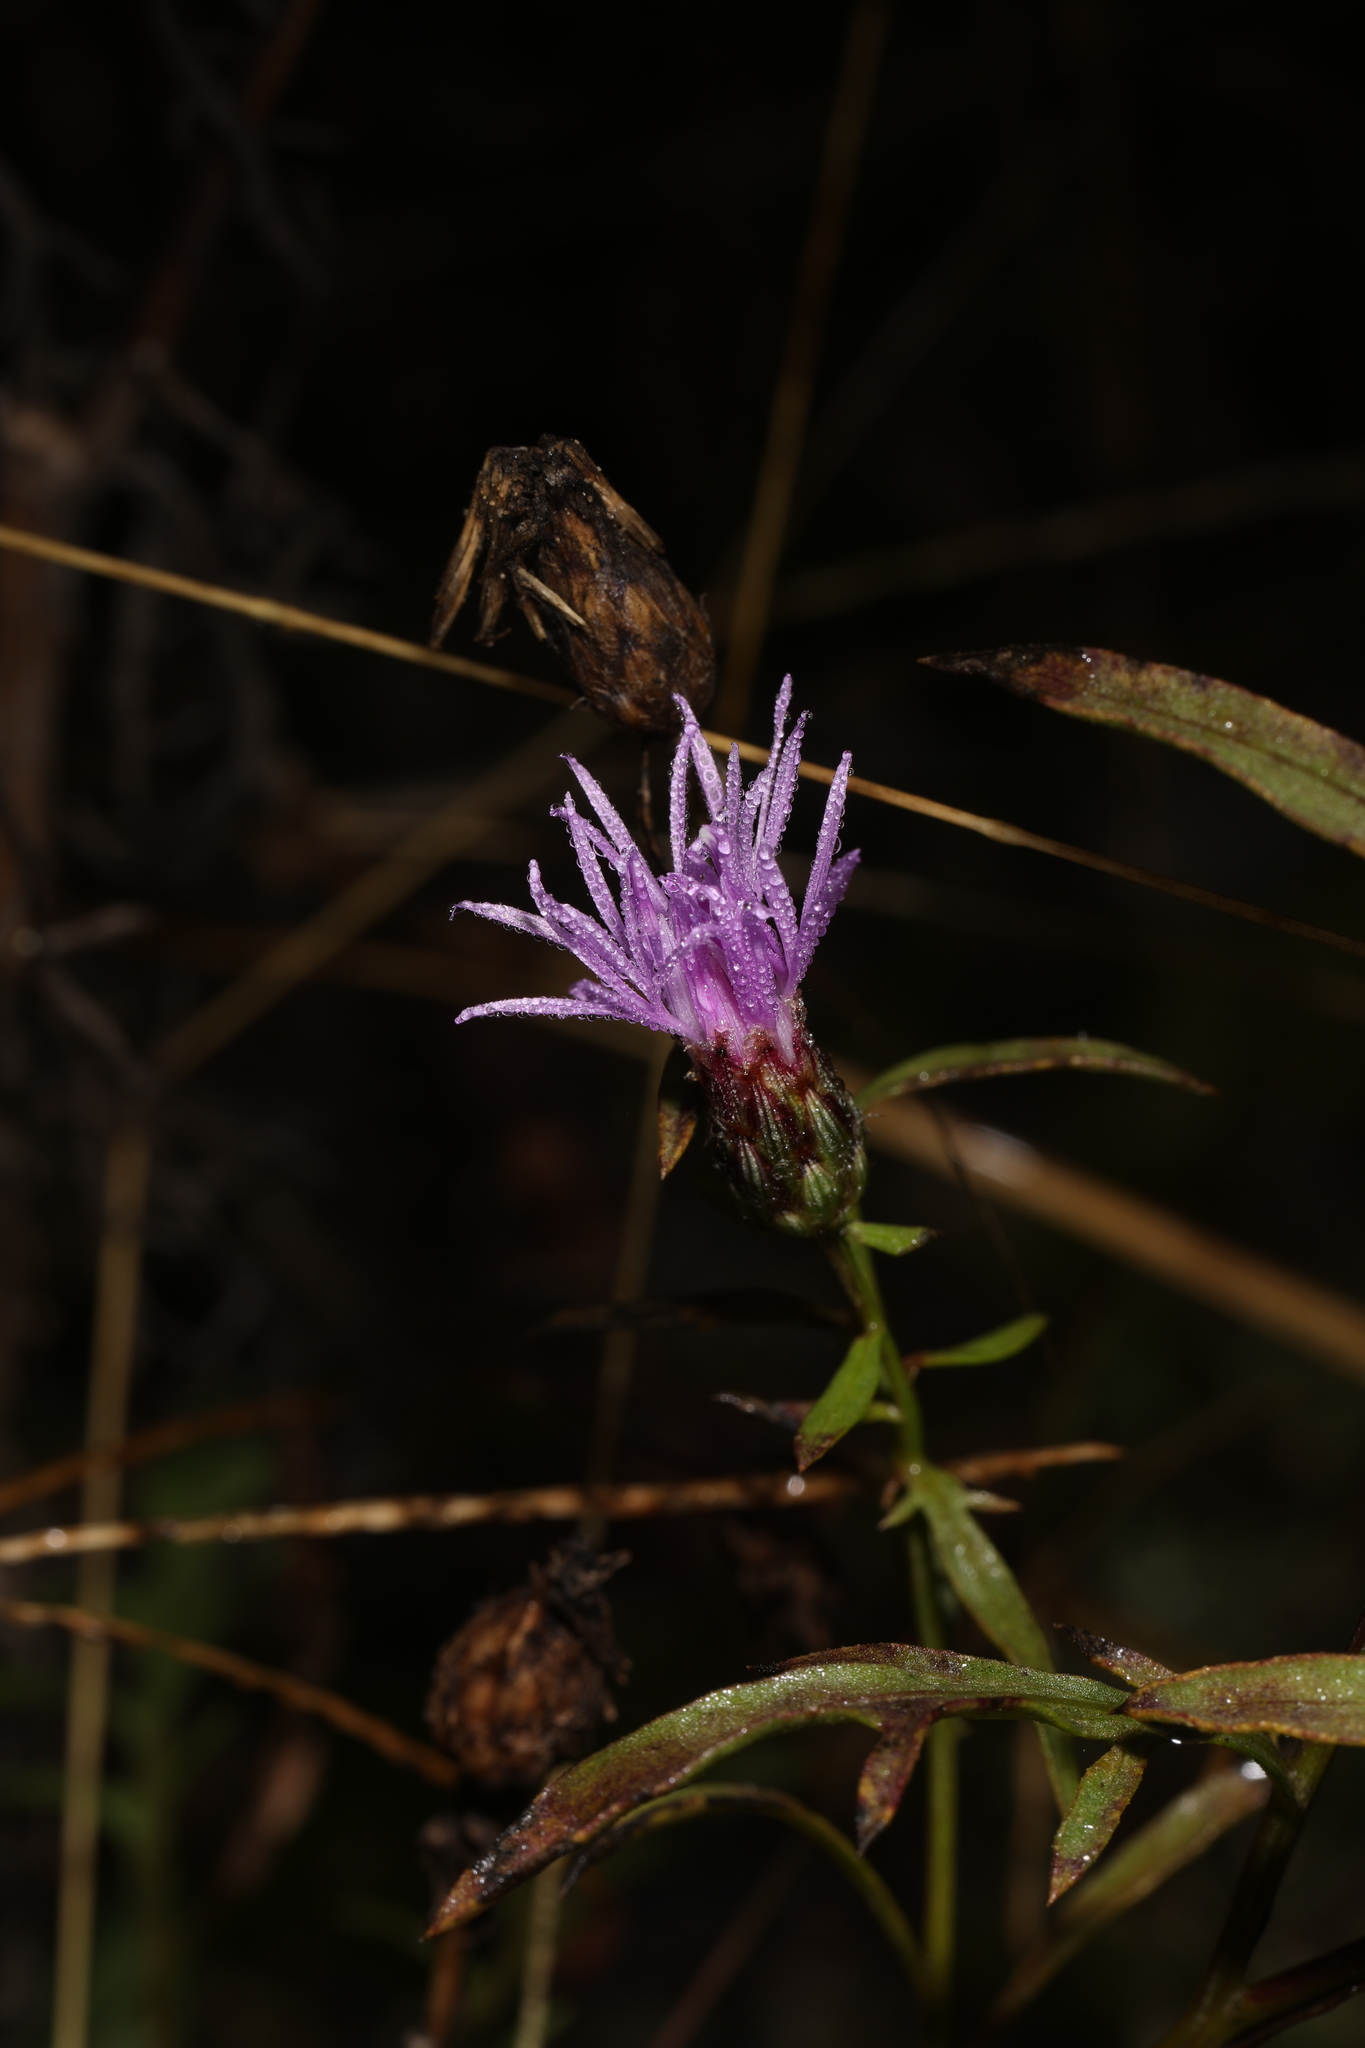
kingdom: Plantae
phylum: Tracheophyta
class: Magnoliopsida
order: Asterales
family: Asteraceae
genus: Centaurea
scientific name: Centaurea stoebe
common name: Spotted knapweed
